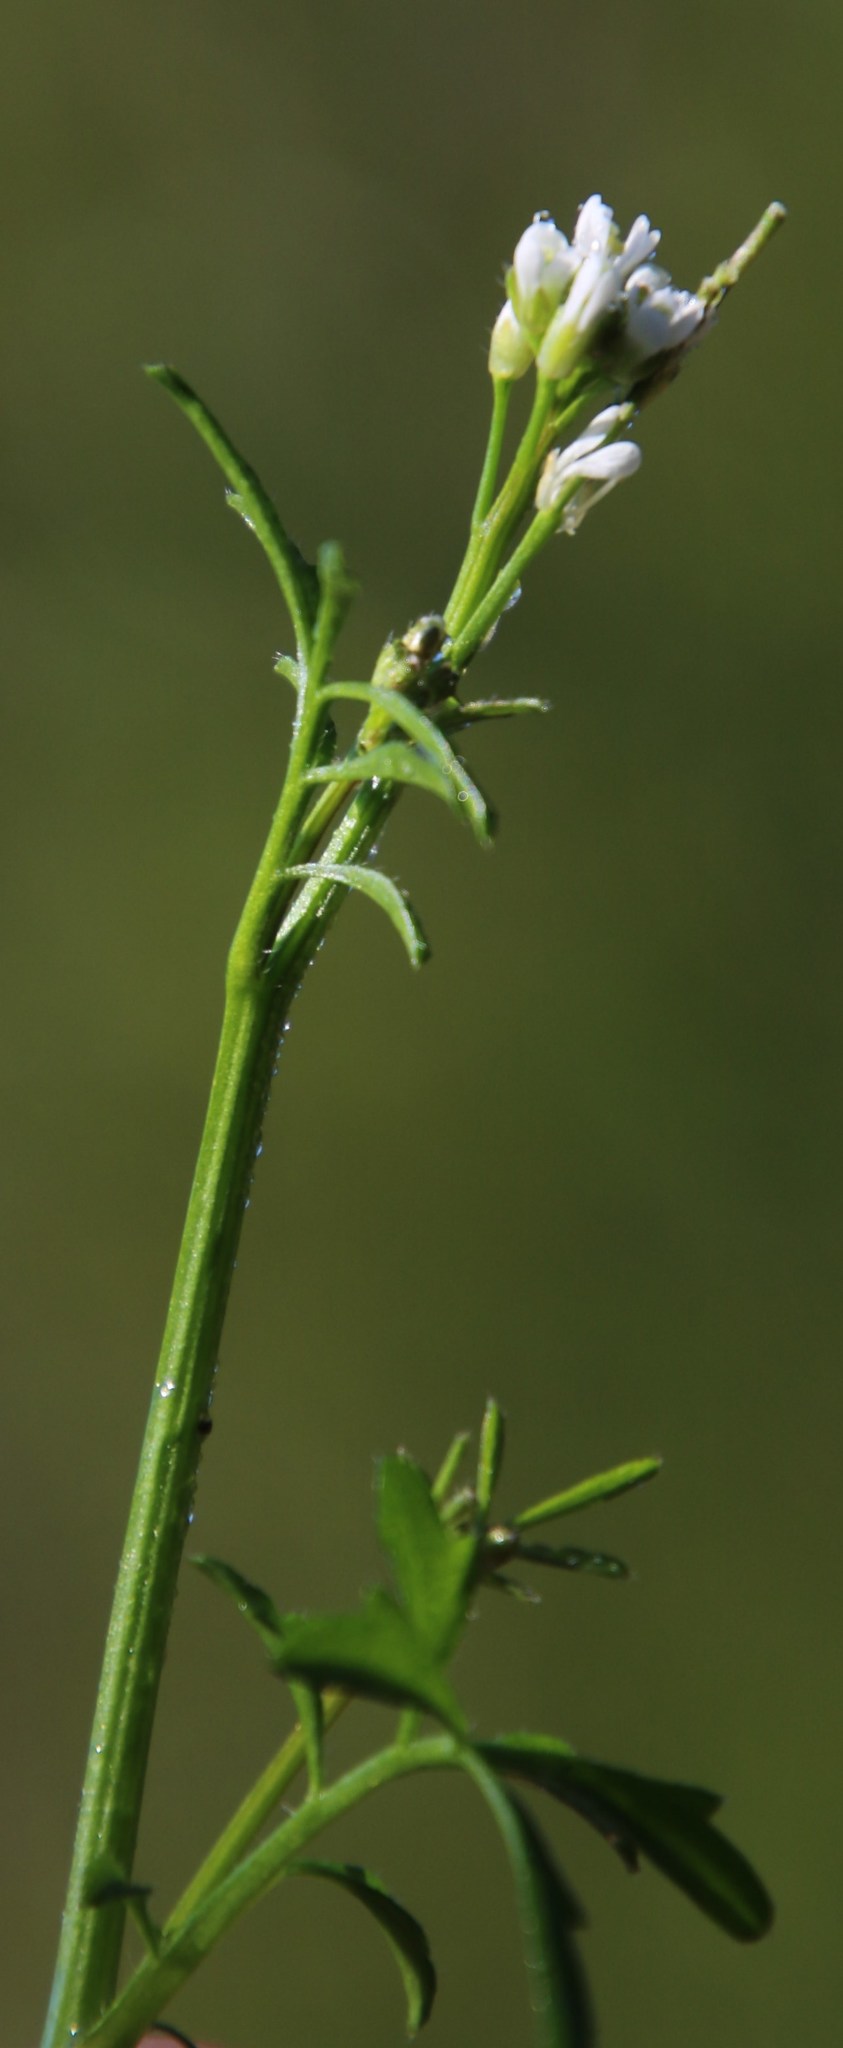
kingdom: Plantae
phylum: Tracheophyta
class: Magnoliopsida
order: Brassicales
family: Brassicaceae
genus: Cardamine
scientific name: Cardamine hirsuta
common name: Hairy bittercress
